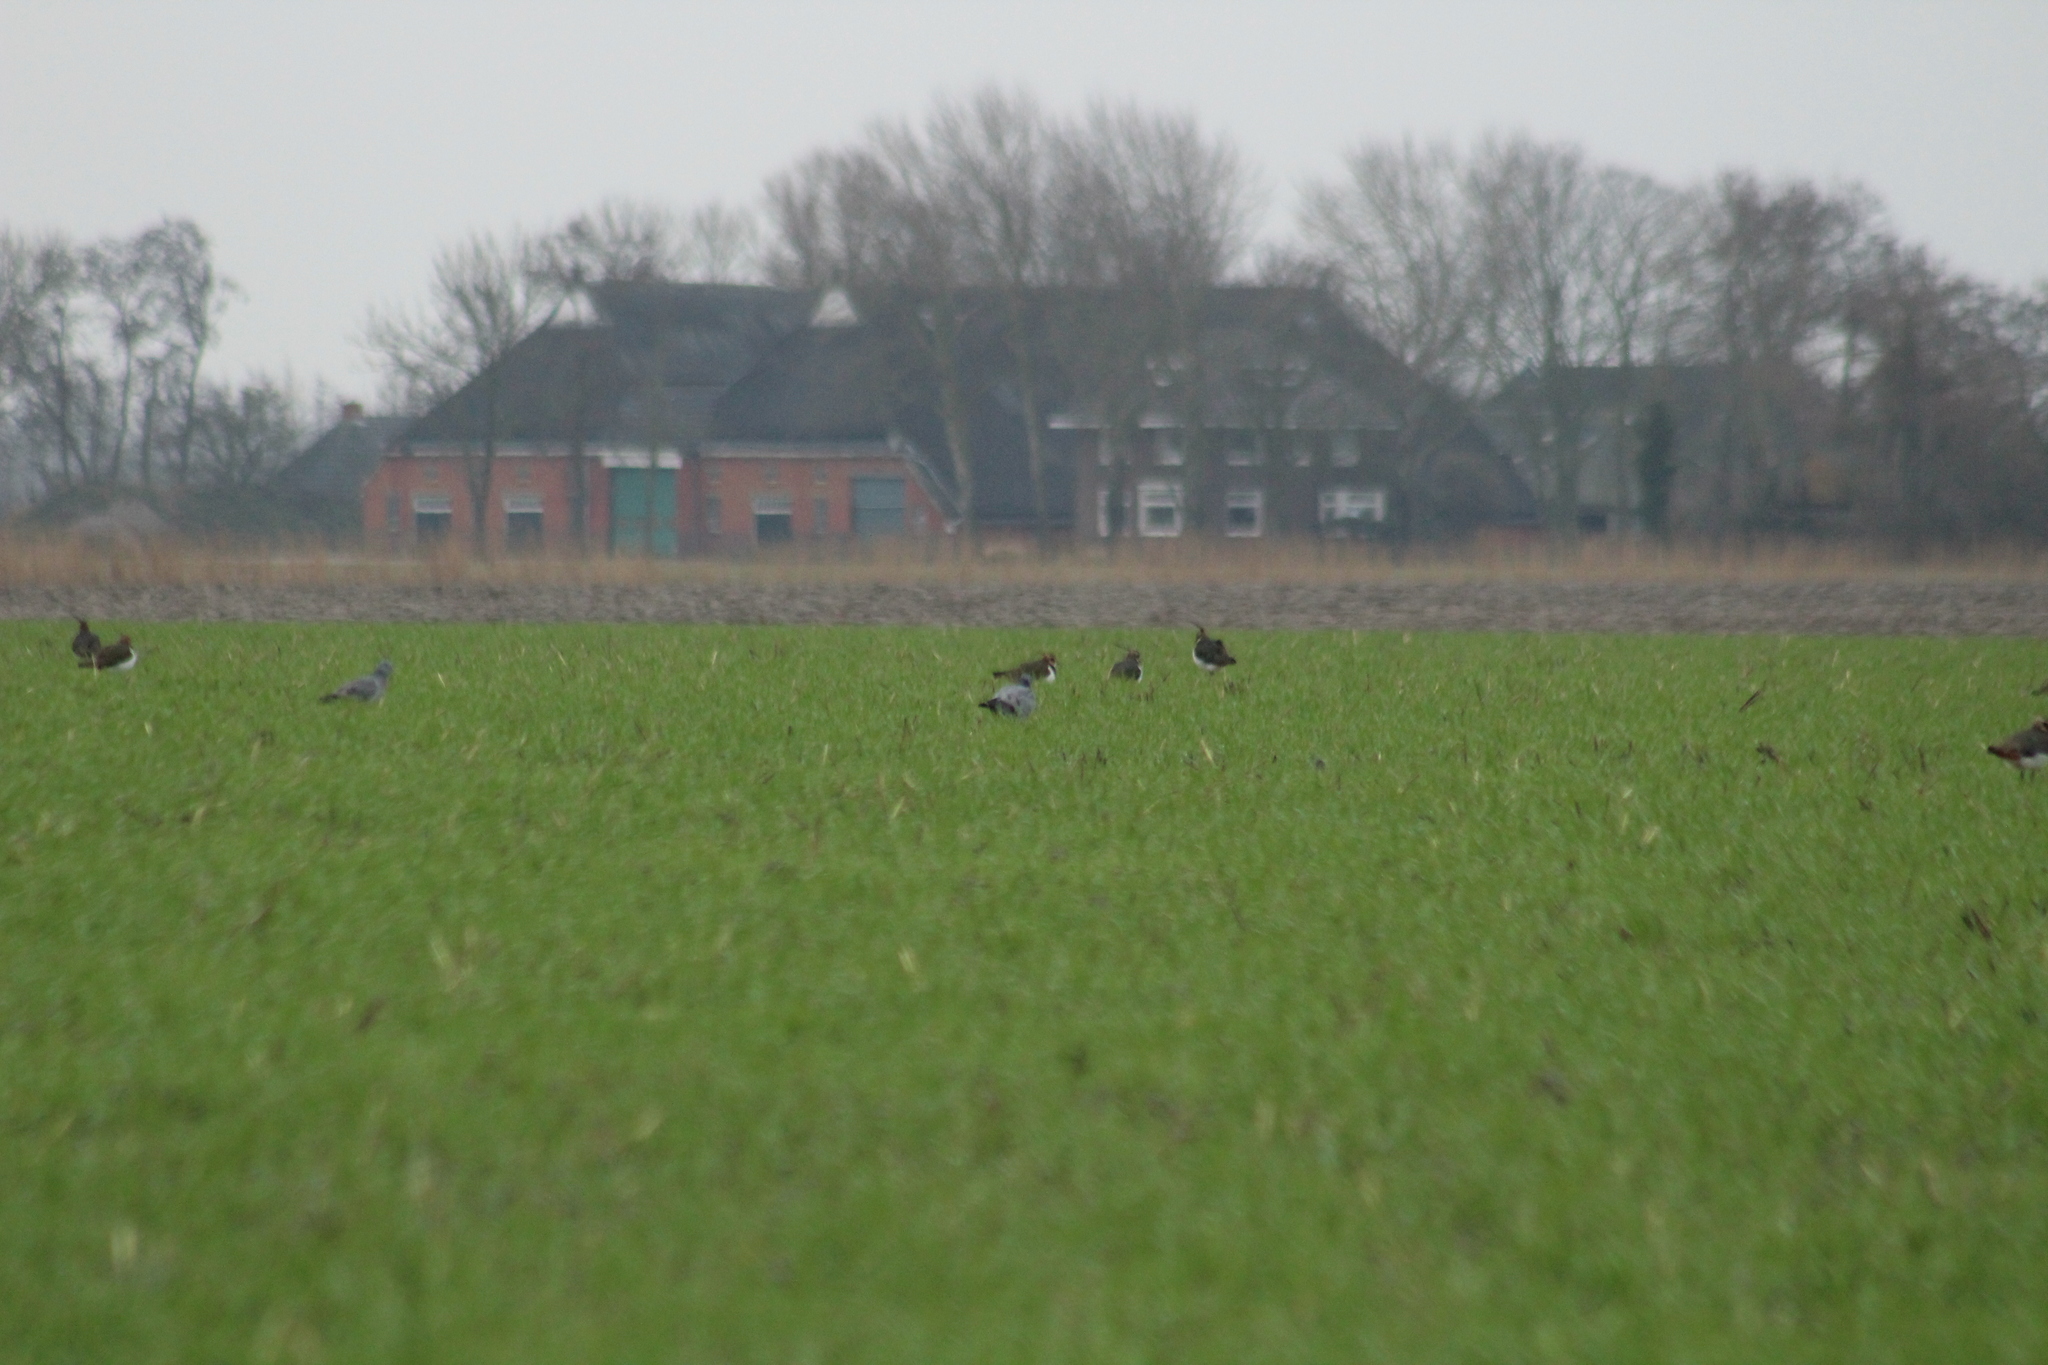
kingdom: Animalia
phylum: Chordata
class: Aves
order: Columbiformes
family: Columbidae
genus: Columba
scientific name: Columba oenas
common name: Stock dove
